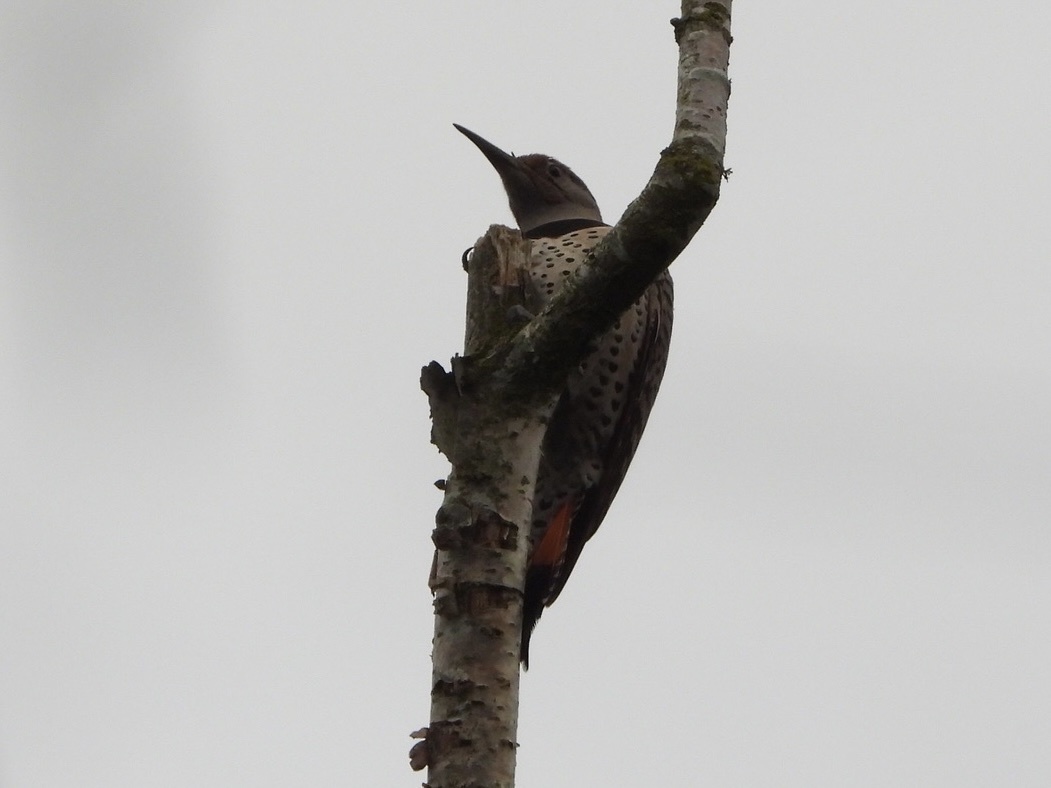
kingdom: Animalia
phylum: Chordata
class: Aves
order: Piciformes
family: Picidae
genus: Colaptes
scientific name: Colaptes auratus
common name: Northern flicker
